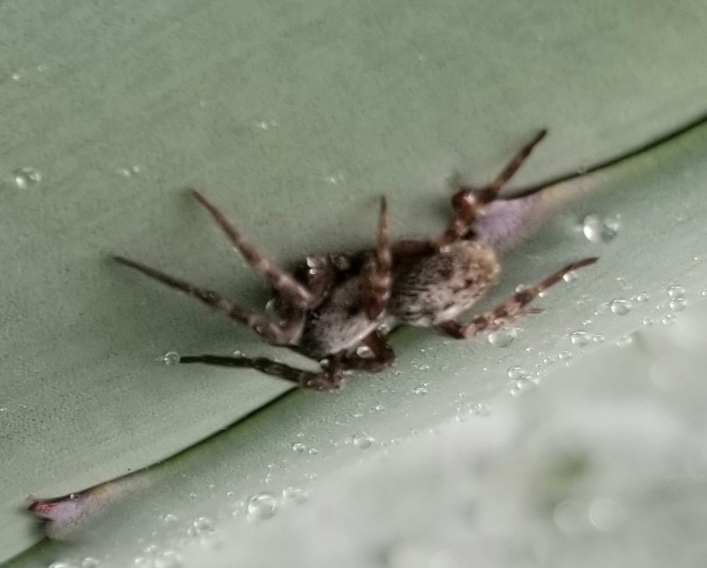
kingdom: Animalia
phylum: Arthropoda
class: Arachnida
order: Araneae
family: Desidae
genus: Badumna
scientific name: Badumna longinqua
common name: Gray house spider
